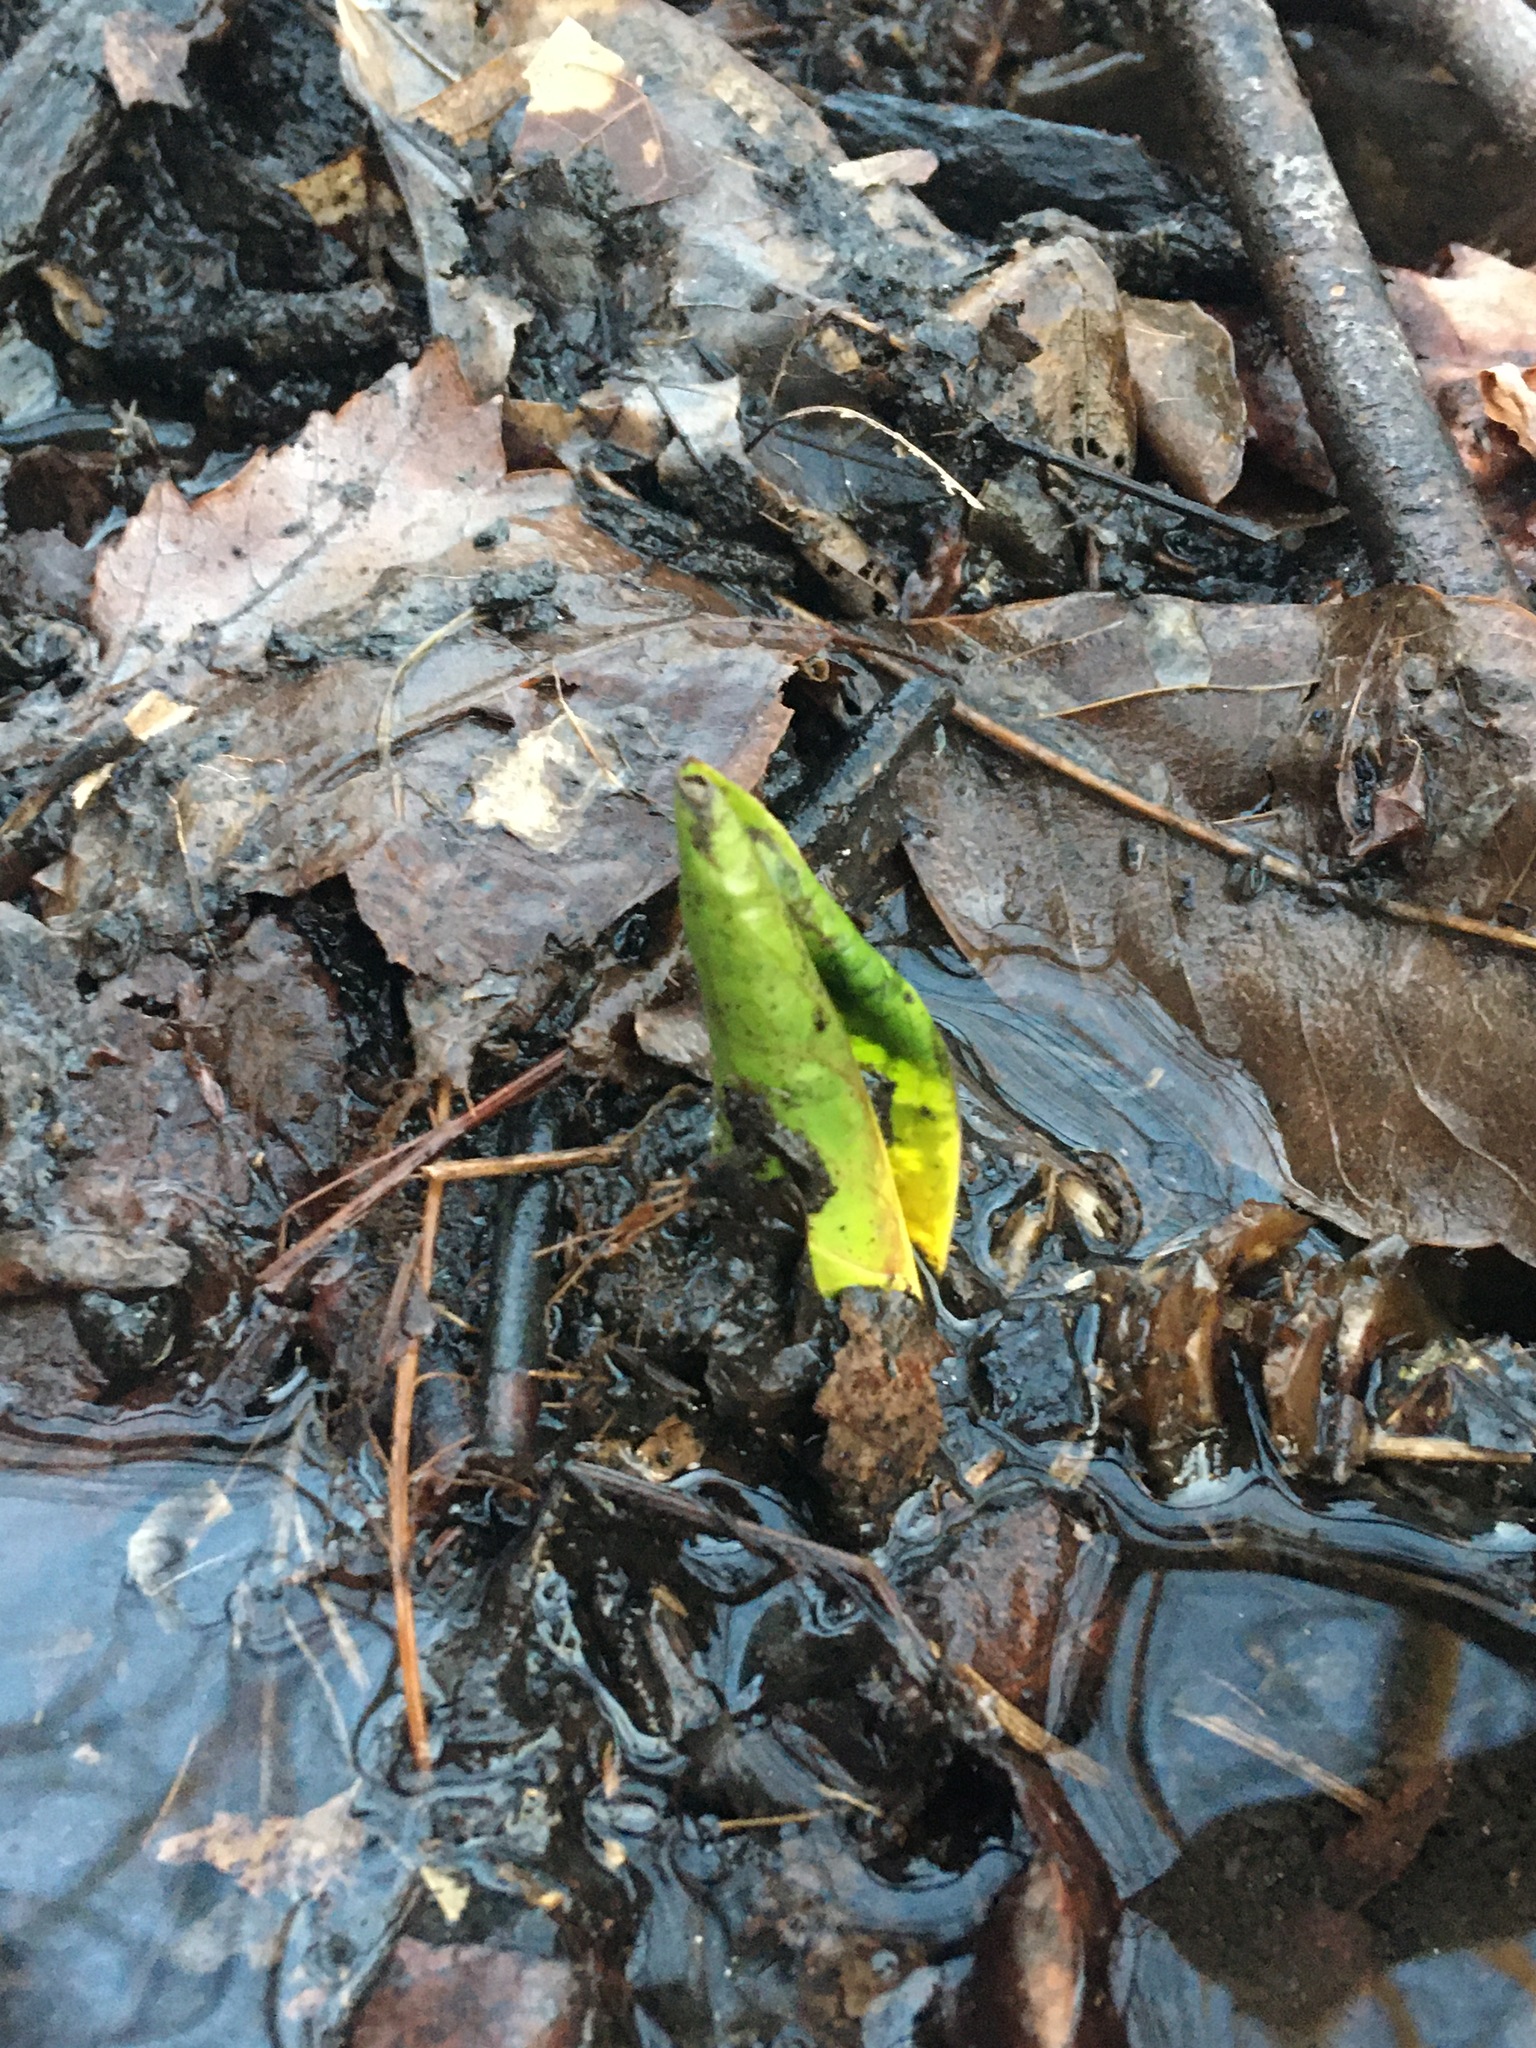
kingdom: Plantae
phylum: Tracheophyta
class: Liliopsida
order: Alismatales
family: Araceae
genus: Symplocarpus
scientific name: Symplocarpus foetidus
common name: Eastern skunk cabbage
